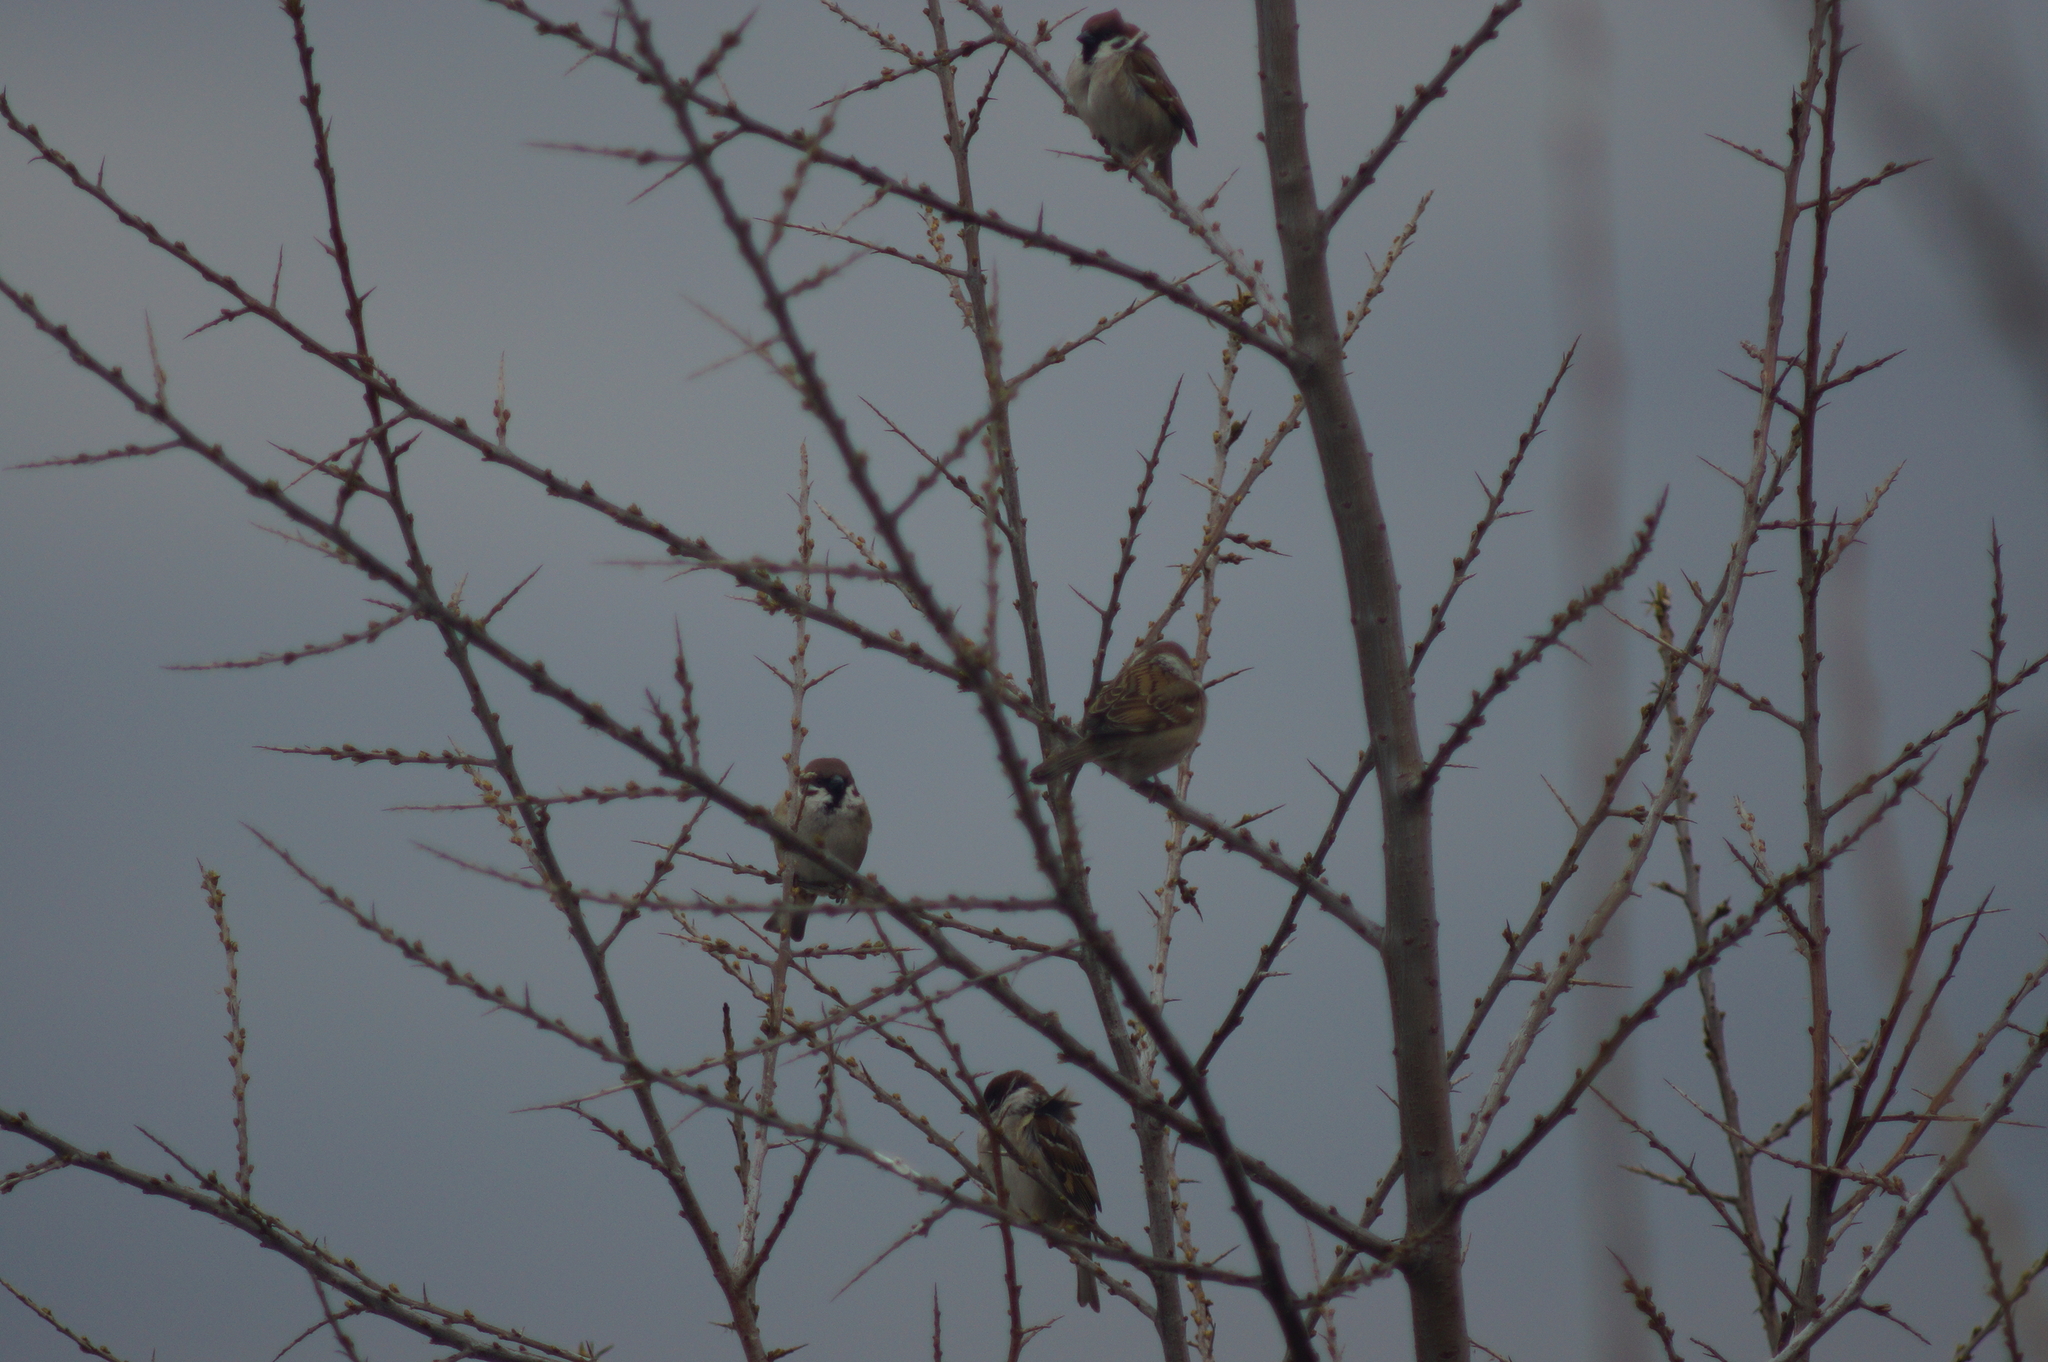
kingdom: Animalia
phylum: Chordata
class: Aves
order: Passeriformes
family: Passeridae
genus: Passer
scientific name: Passer montanus
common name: Eurasian tree sparrow
